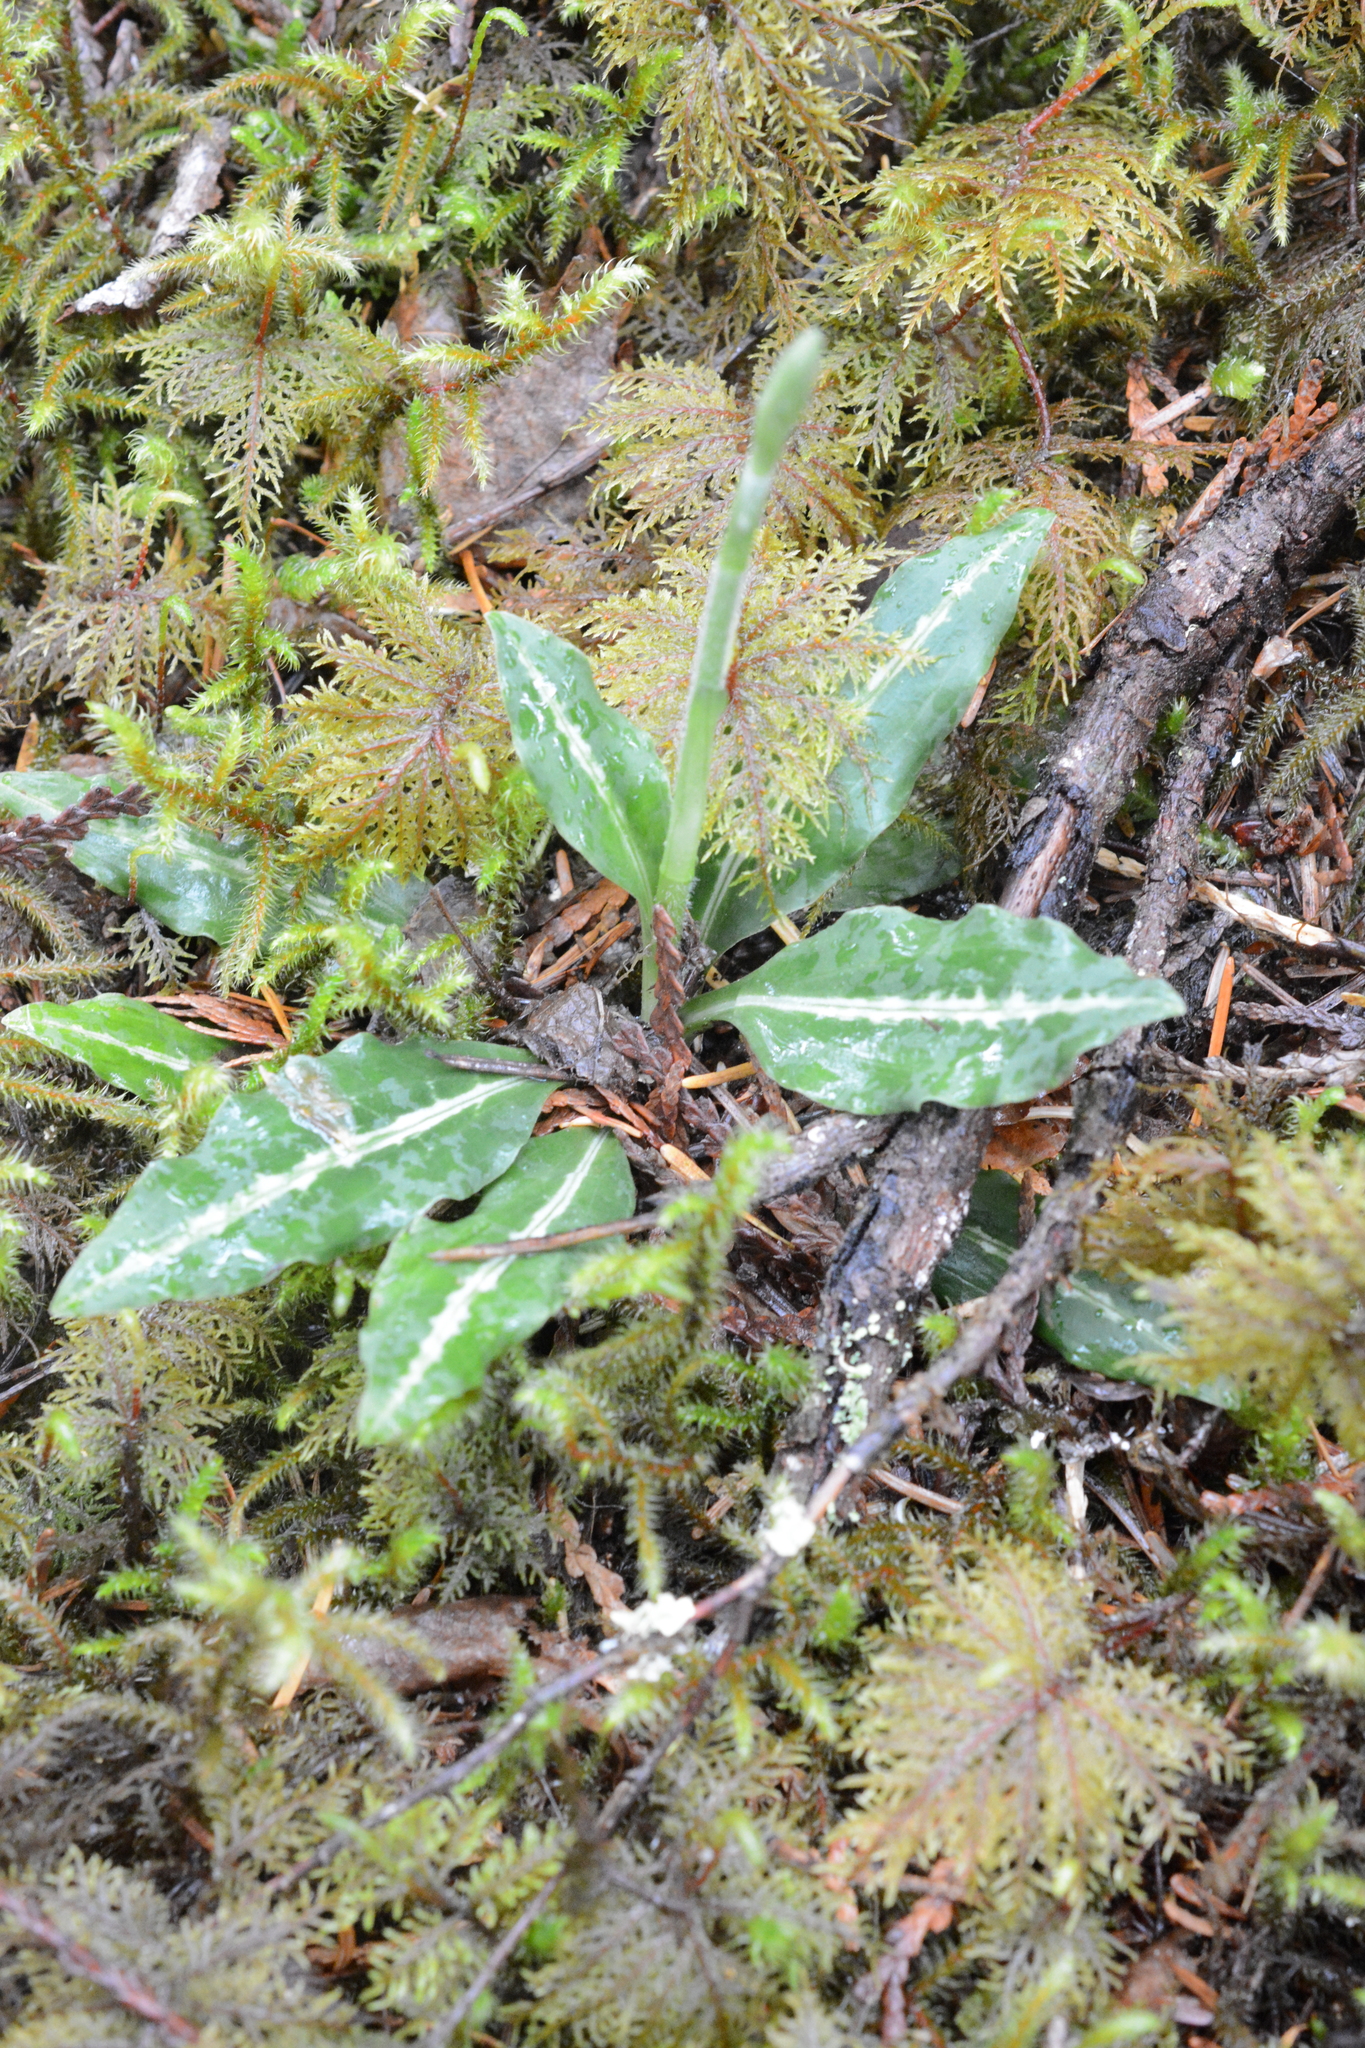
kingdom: Plantae
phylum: Tracheophyta
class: Liliopsida
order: Asparagales
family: Orchidaceae
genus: Goodyera
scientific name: Goodyera oblongifolia
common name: Giant rattlesnake-plantain
